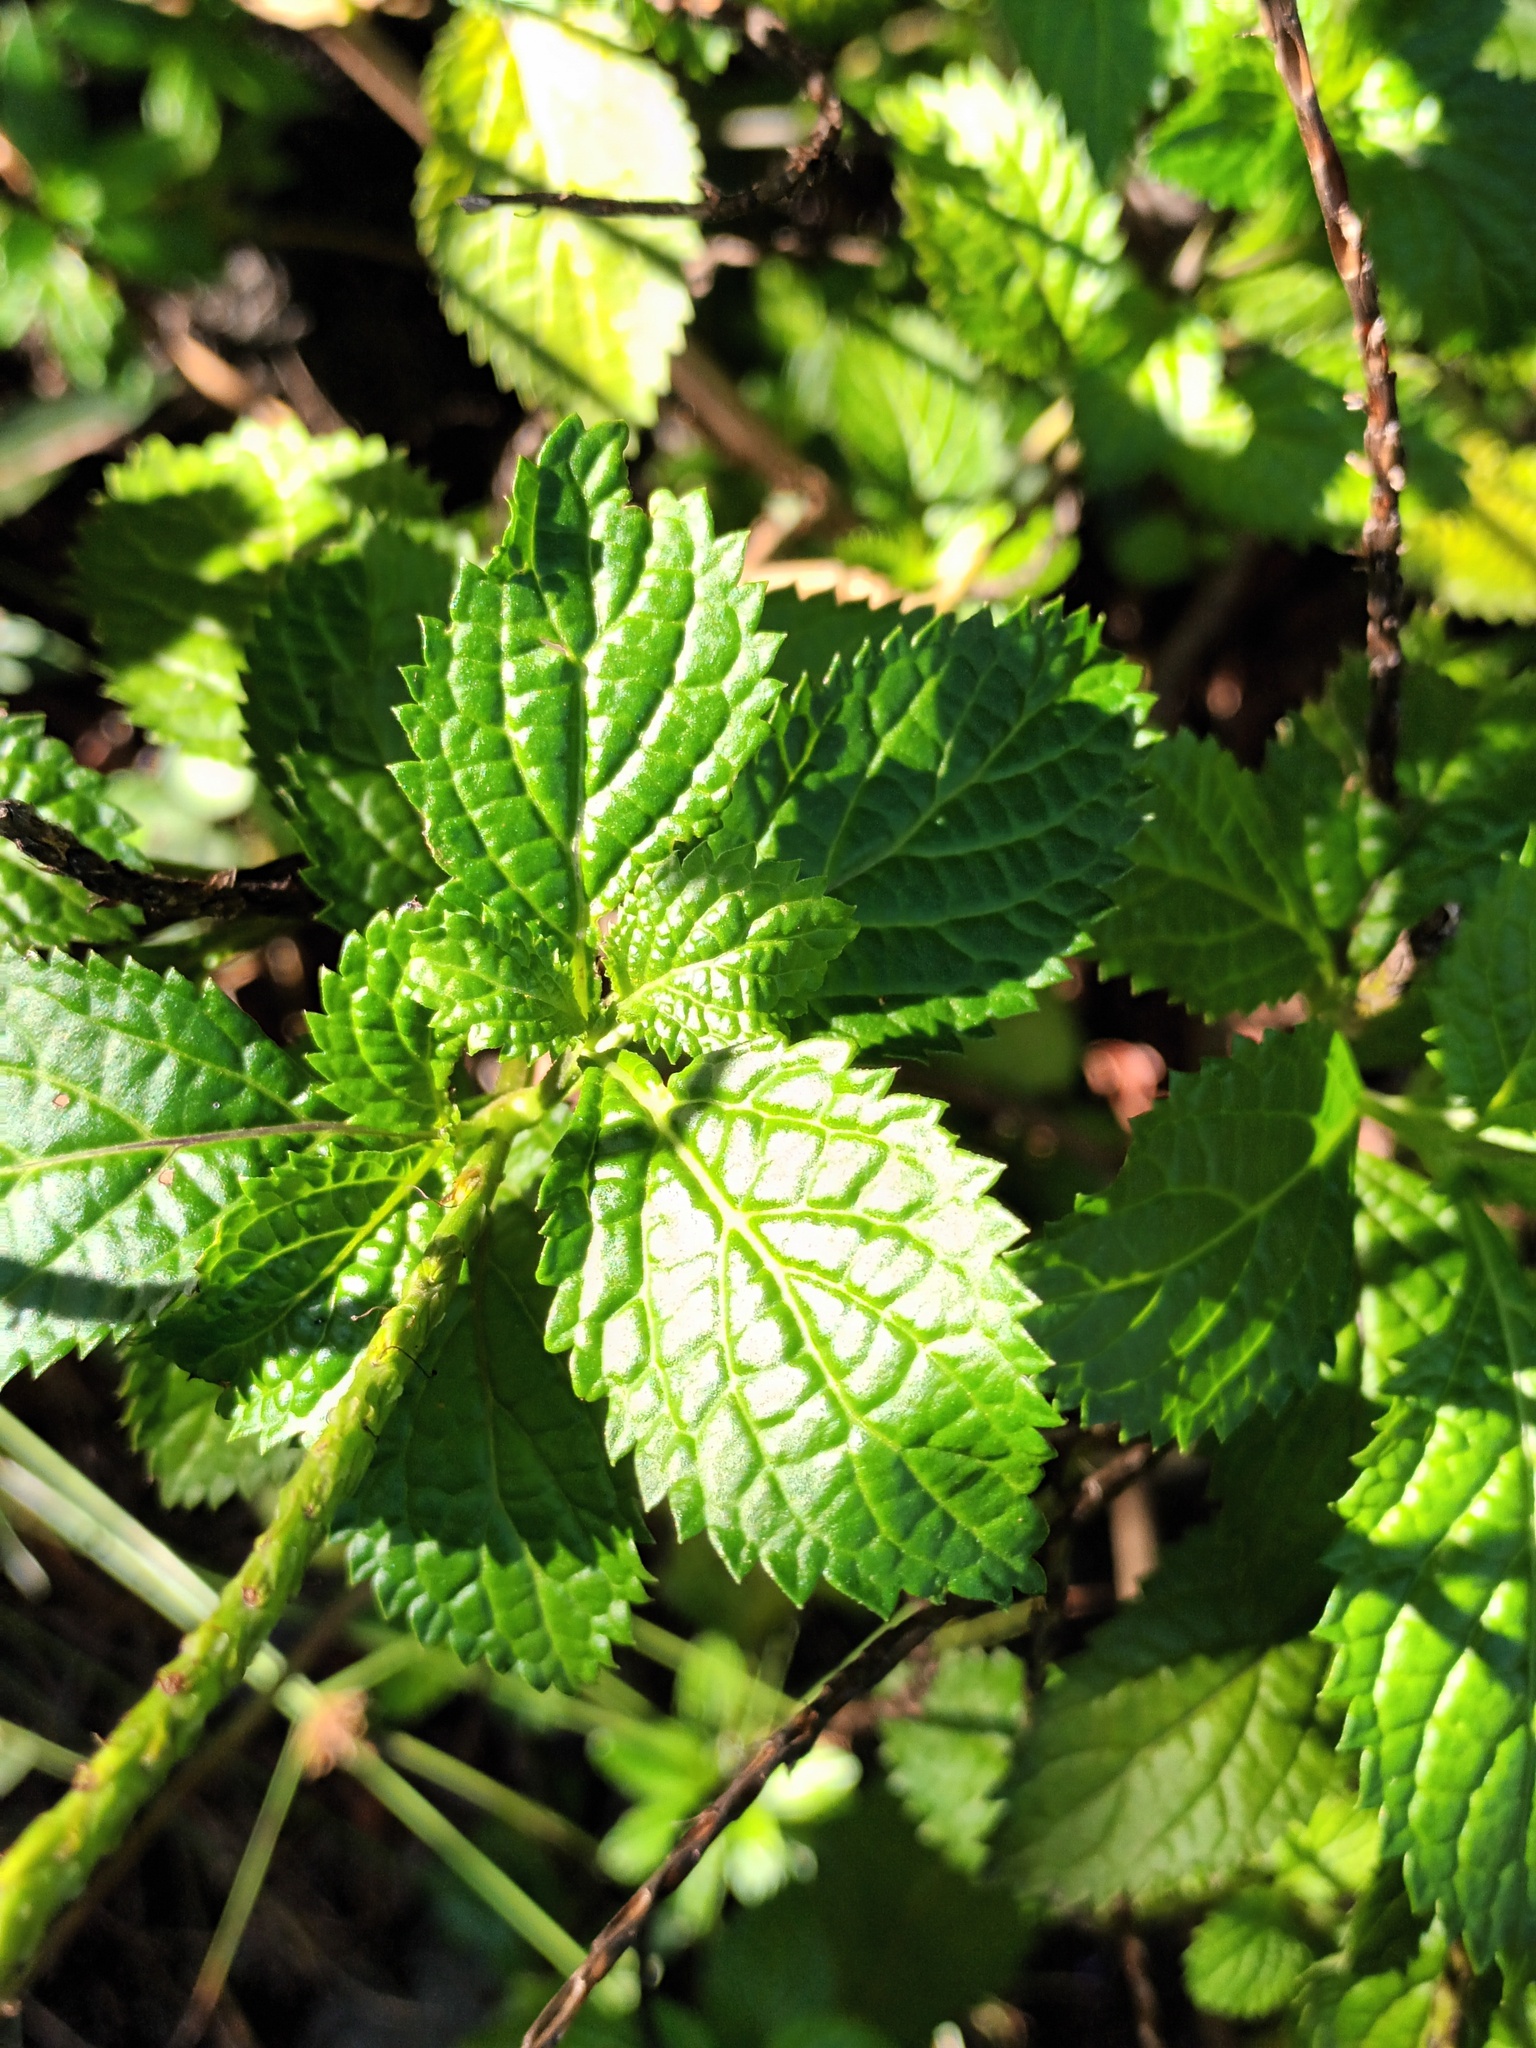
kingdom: Plantae
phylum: Tracheophyta
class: Magnoliopsida
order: Lamiales
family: Verbenaceae
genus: Stachytarpheta
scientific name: Stachytarpheta cayennensis
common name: Cayenne porterweed
